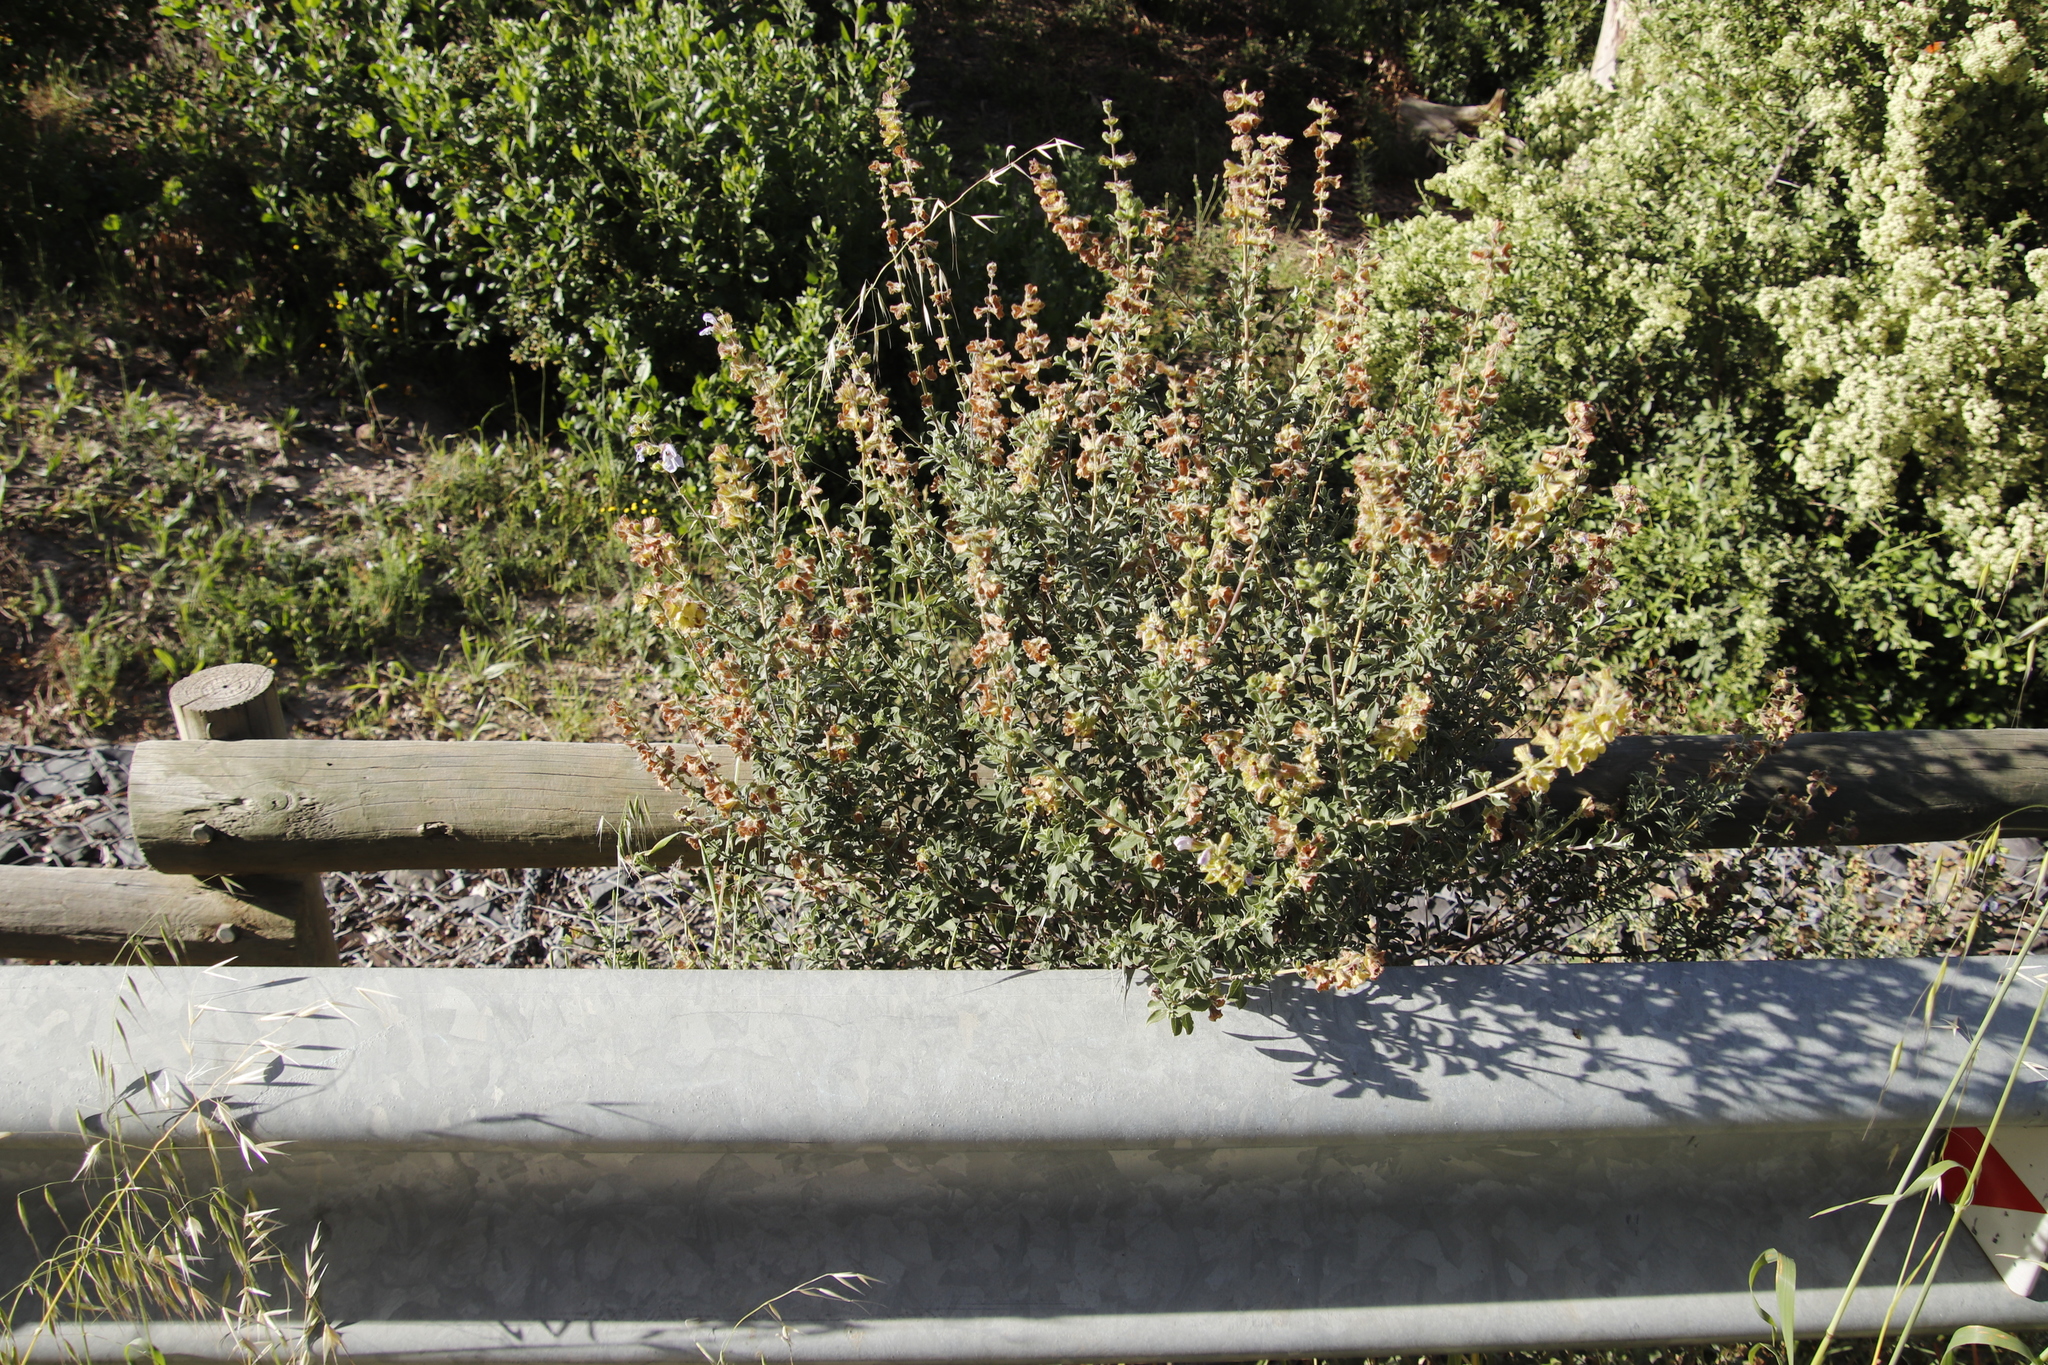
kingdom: Plantae
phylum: Tracheophyta
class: Magnoliopsida
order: Lamiales
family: Lamiaceae
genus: Salvia
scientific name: Salvia africana
